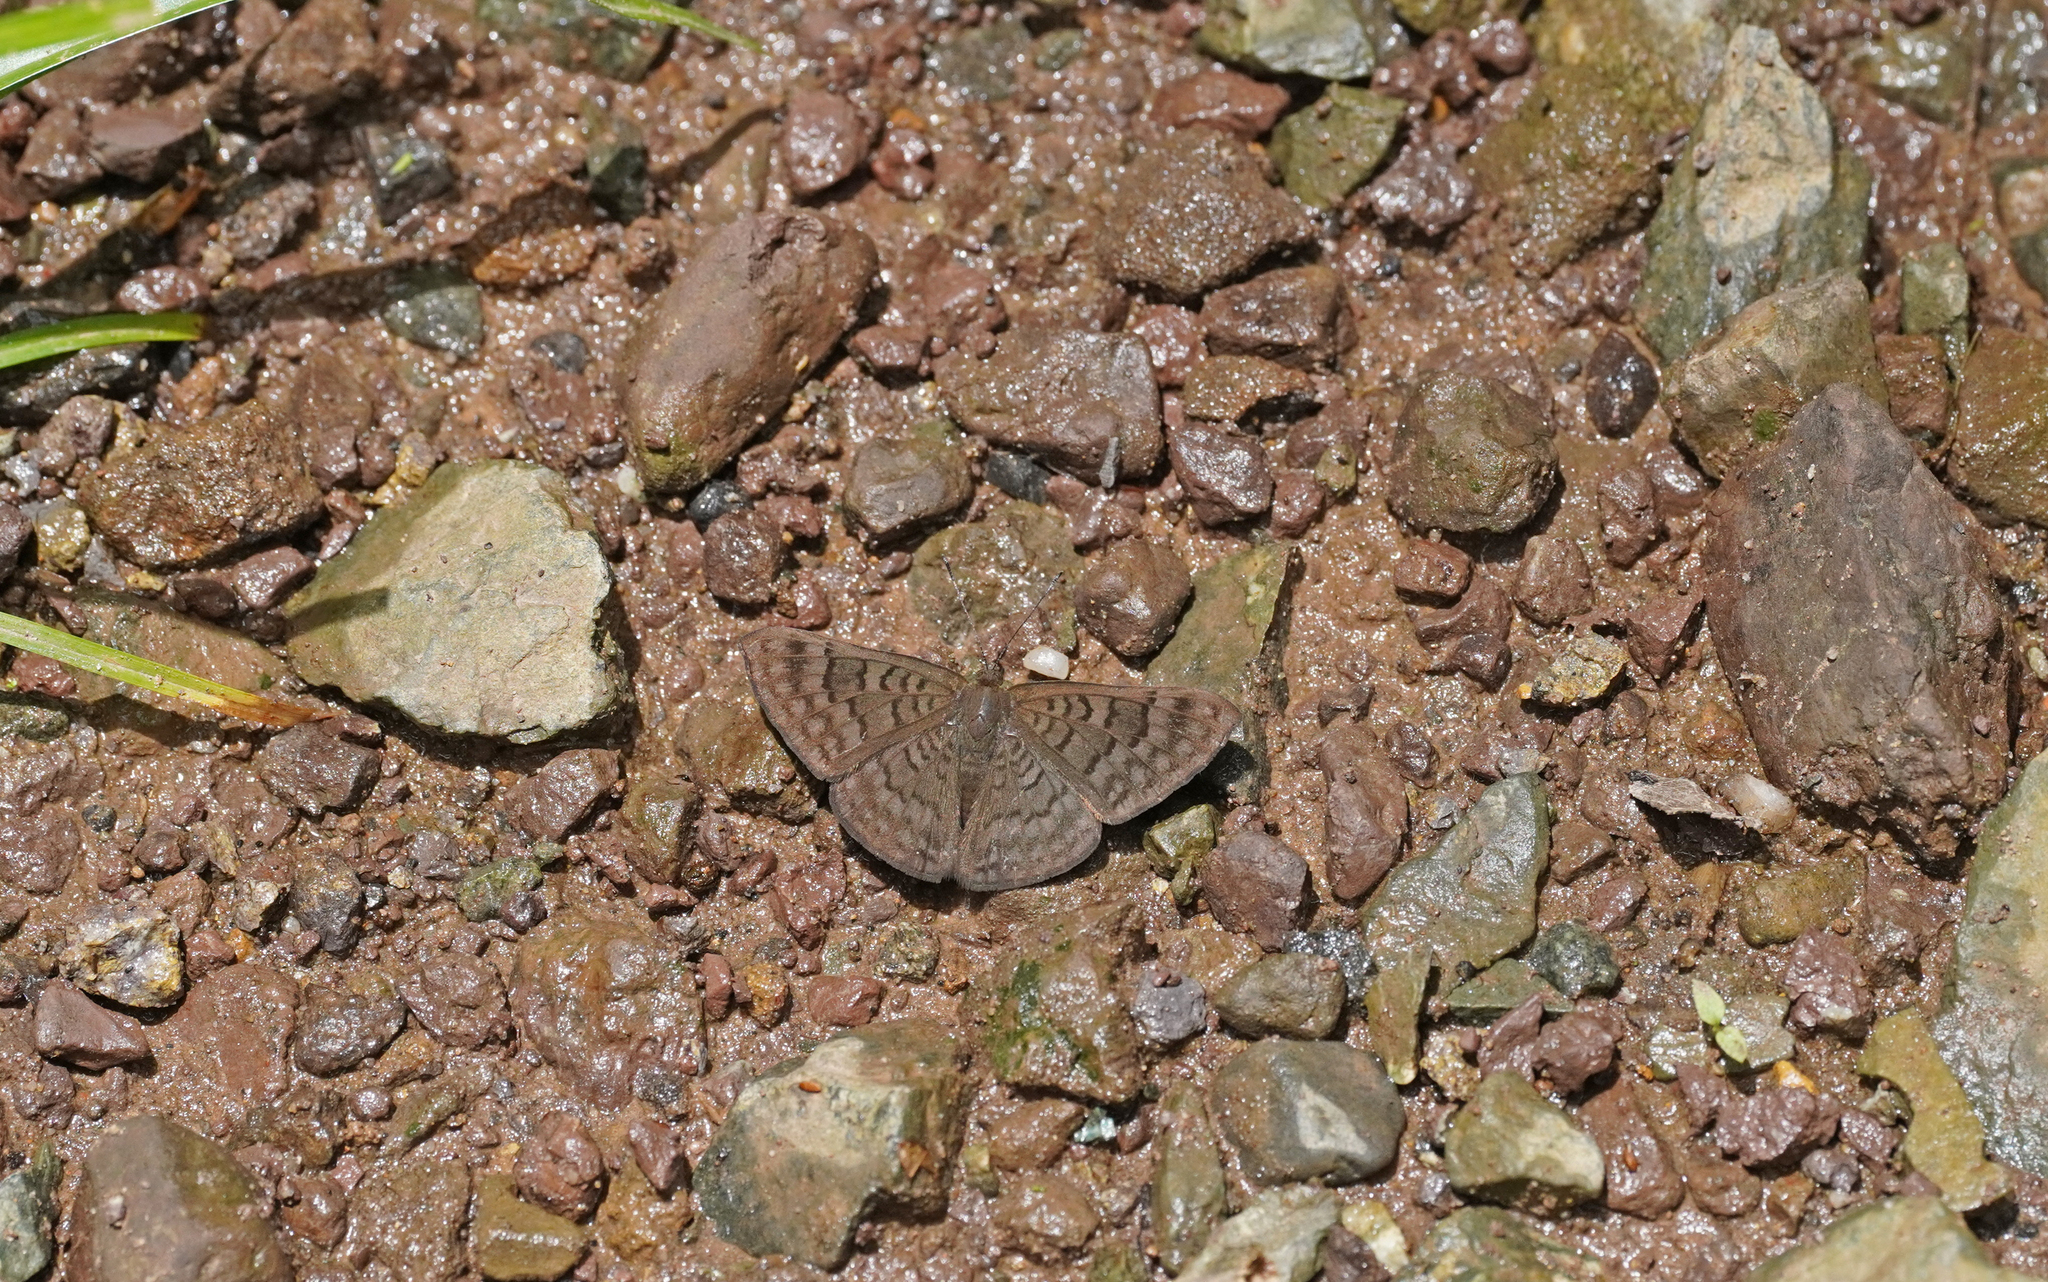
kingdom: Animalia
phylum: Arthropoda
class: Insecta
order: Lepidoptera
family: Lycaenidae
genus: Emesis
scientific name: Emesis ocypore
